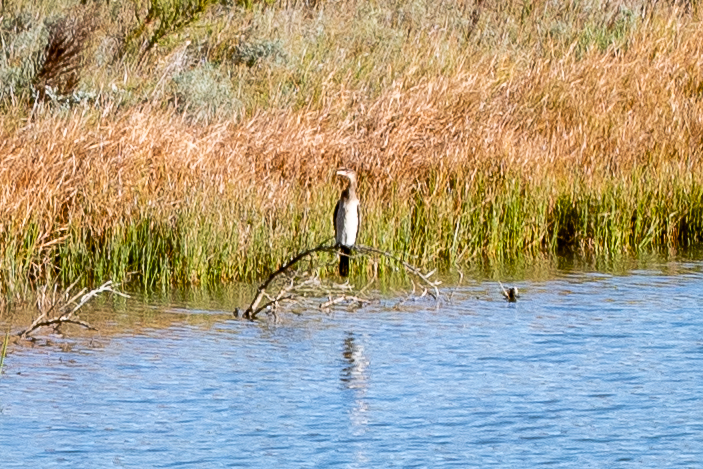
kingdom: Animalia
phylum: Chordata
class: Aves
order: Suliformes
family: Phalacrocoracidae
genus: Phalacrocorax
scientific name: Phalacrocorax carbo
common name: Great cormorant
